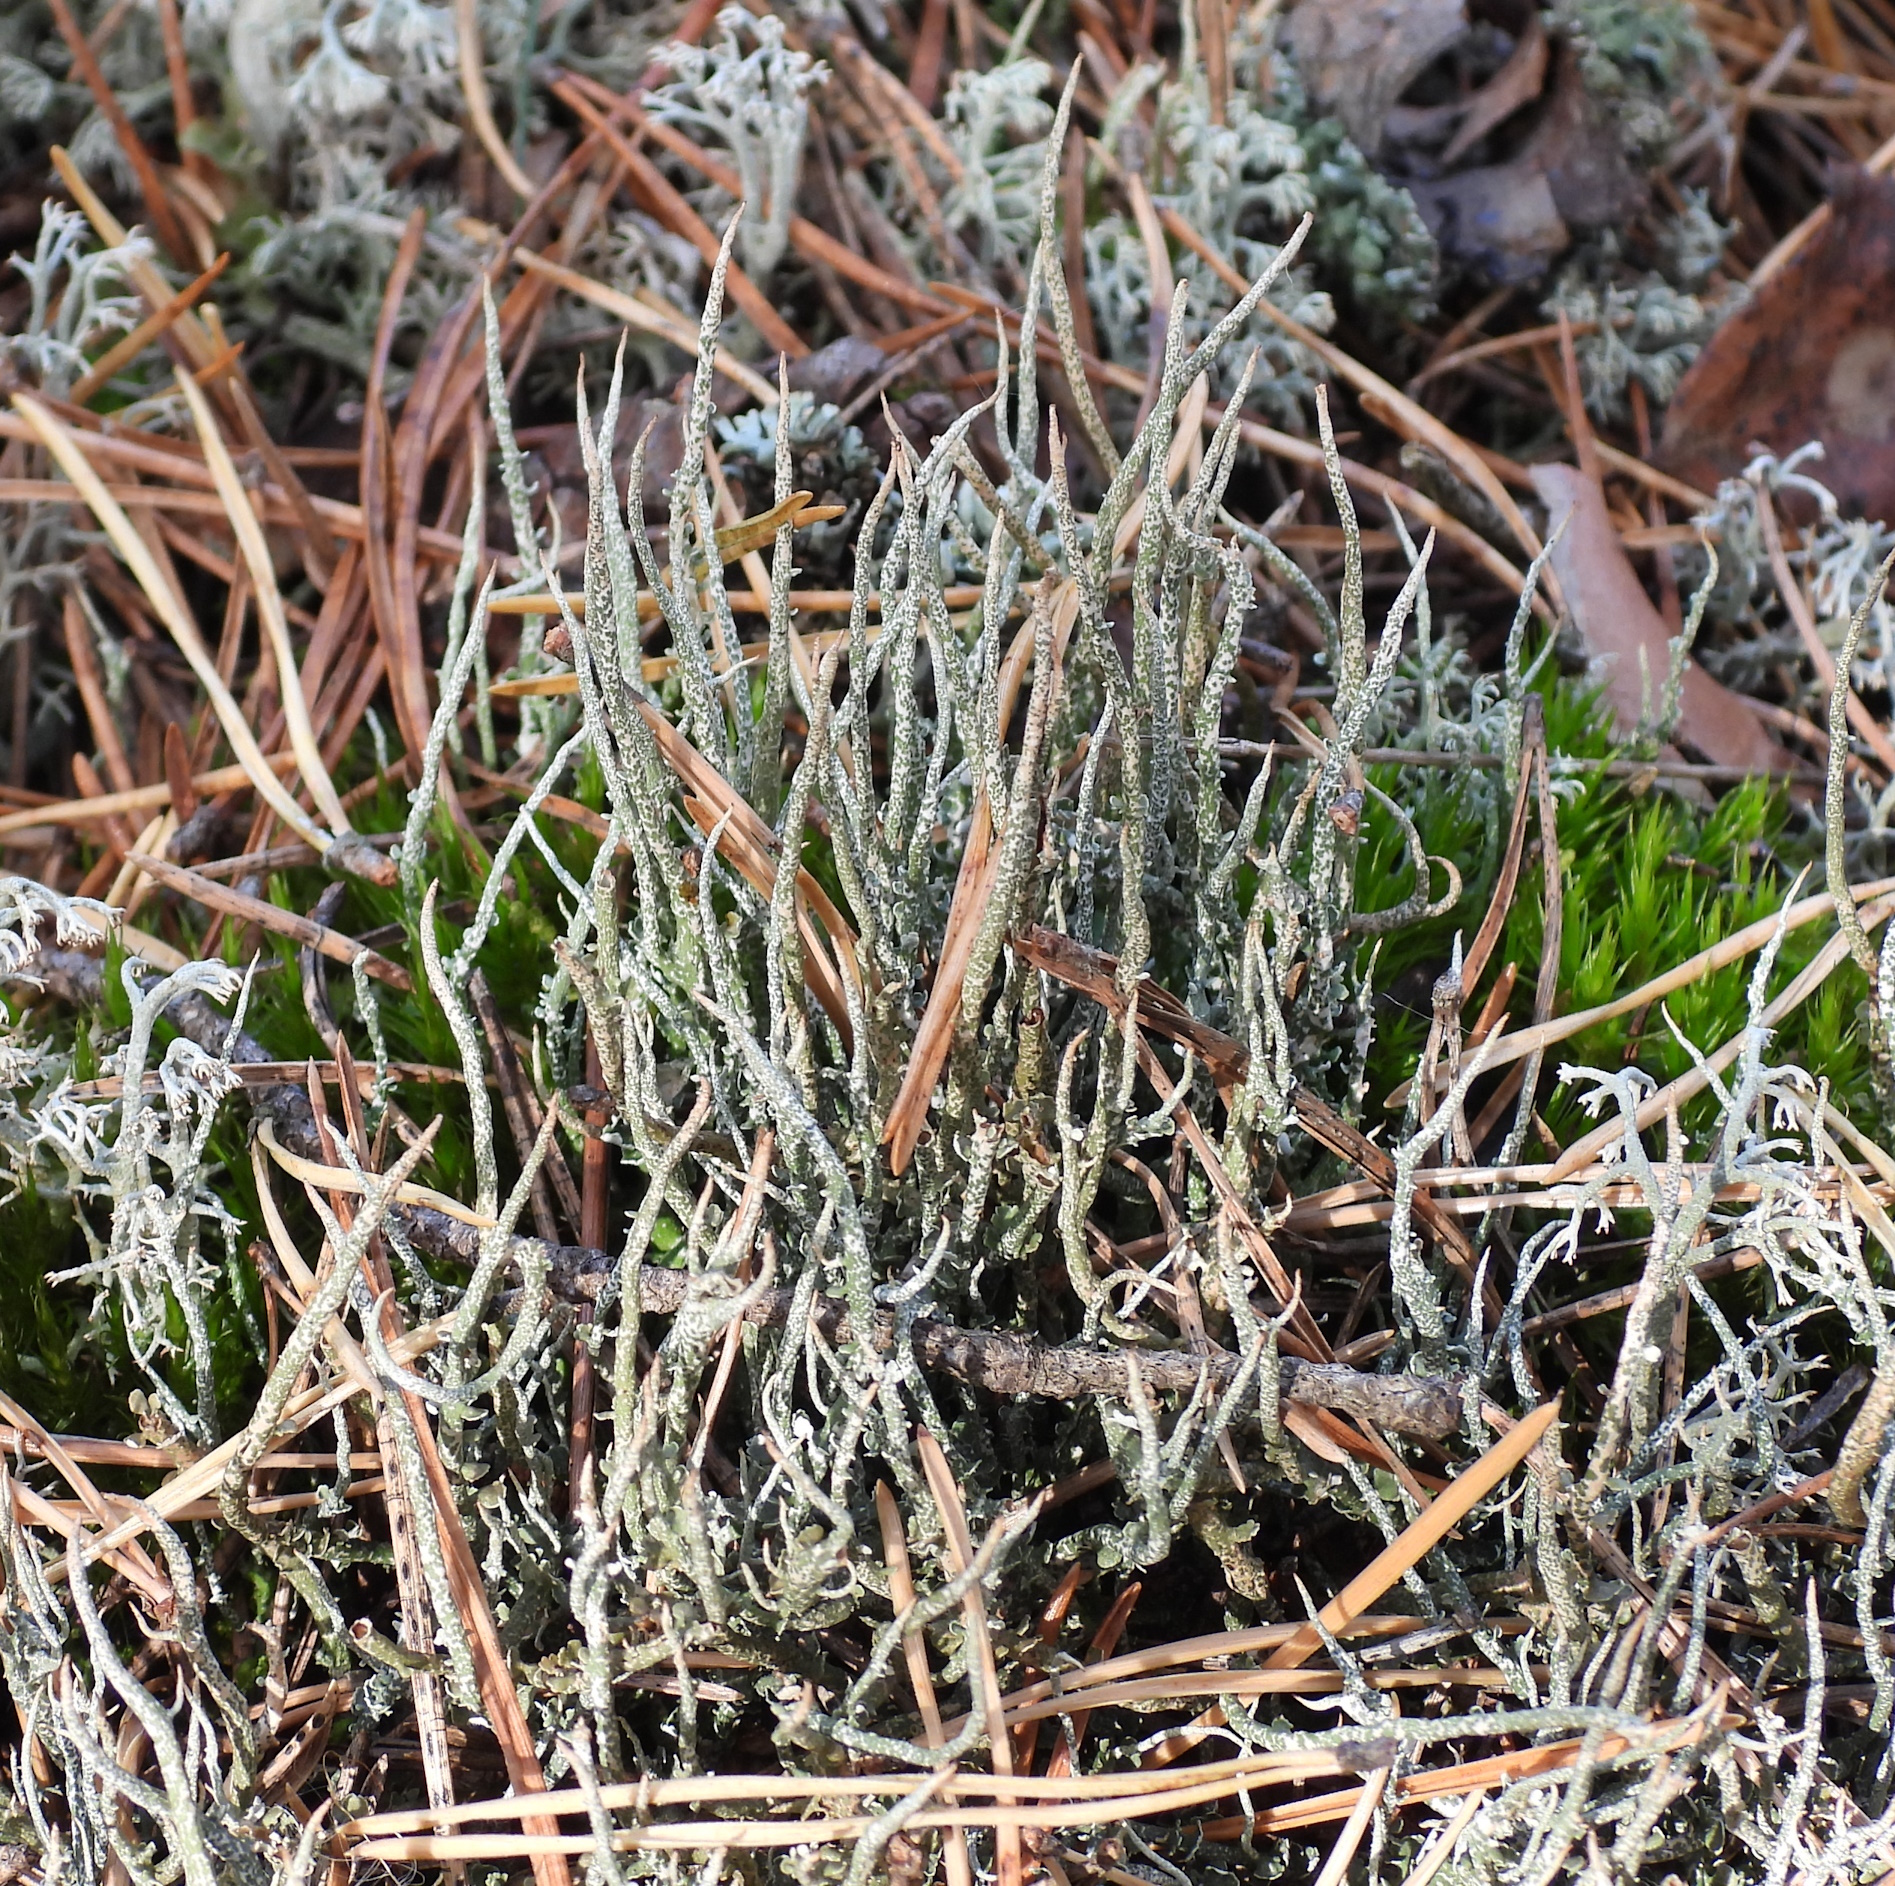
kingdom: Fungi
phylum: Ascomycota
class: Lecanoromycetes
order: Lecanorales
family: Cladoniaceae
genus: Cladonia
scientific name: Cladonia gracilis
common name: Smooth clad lichen
